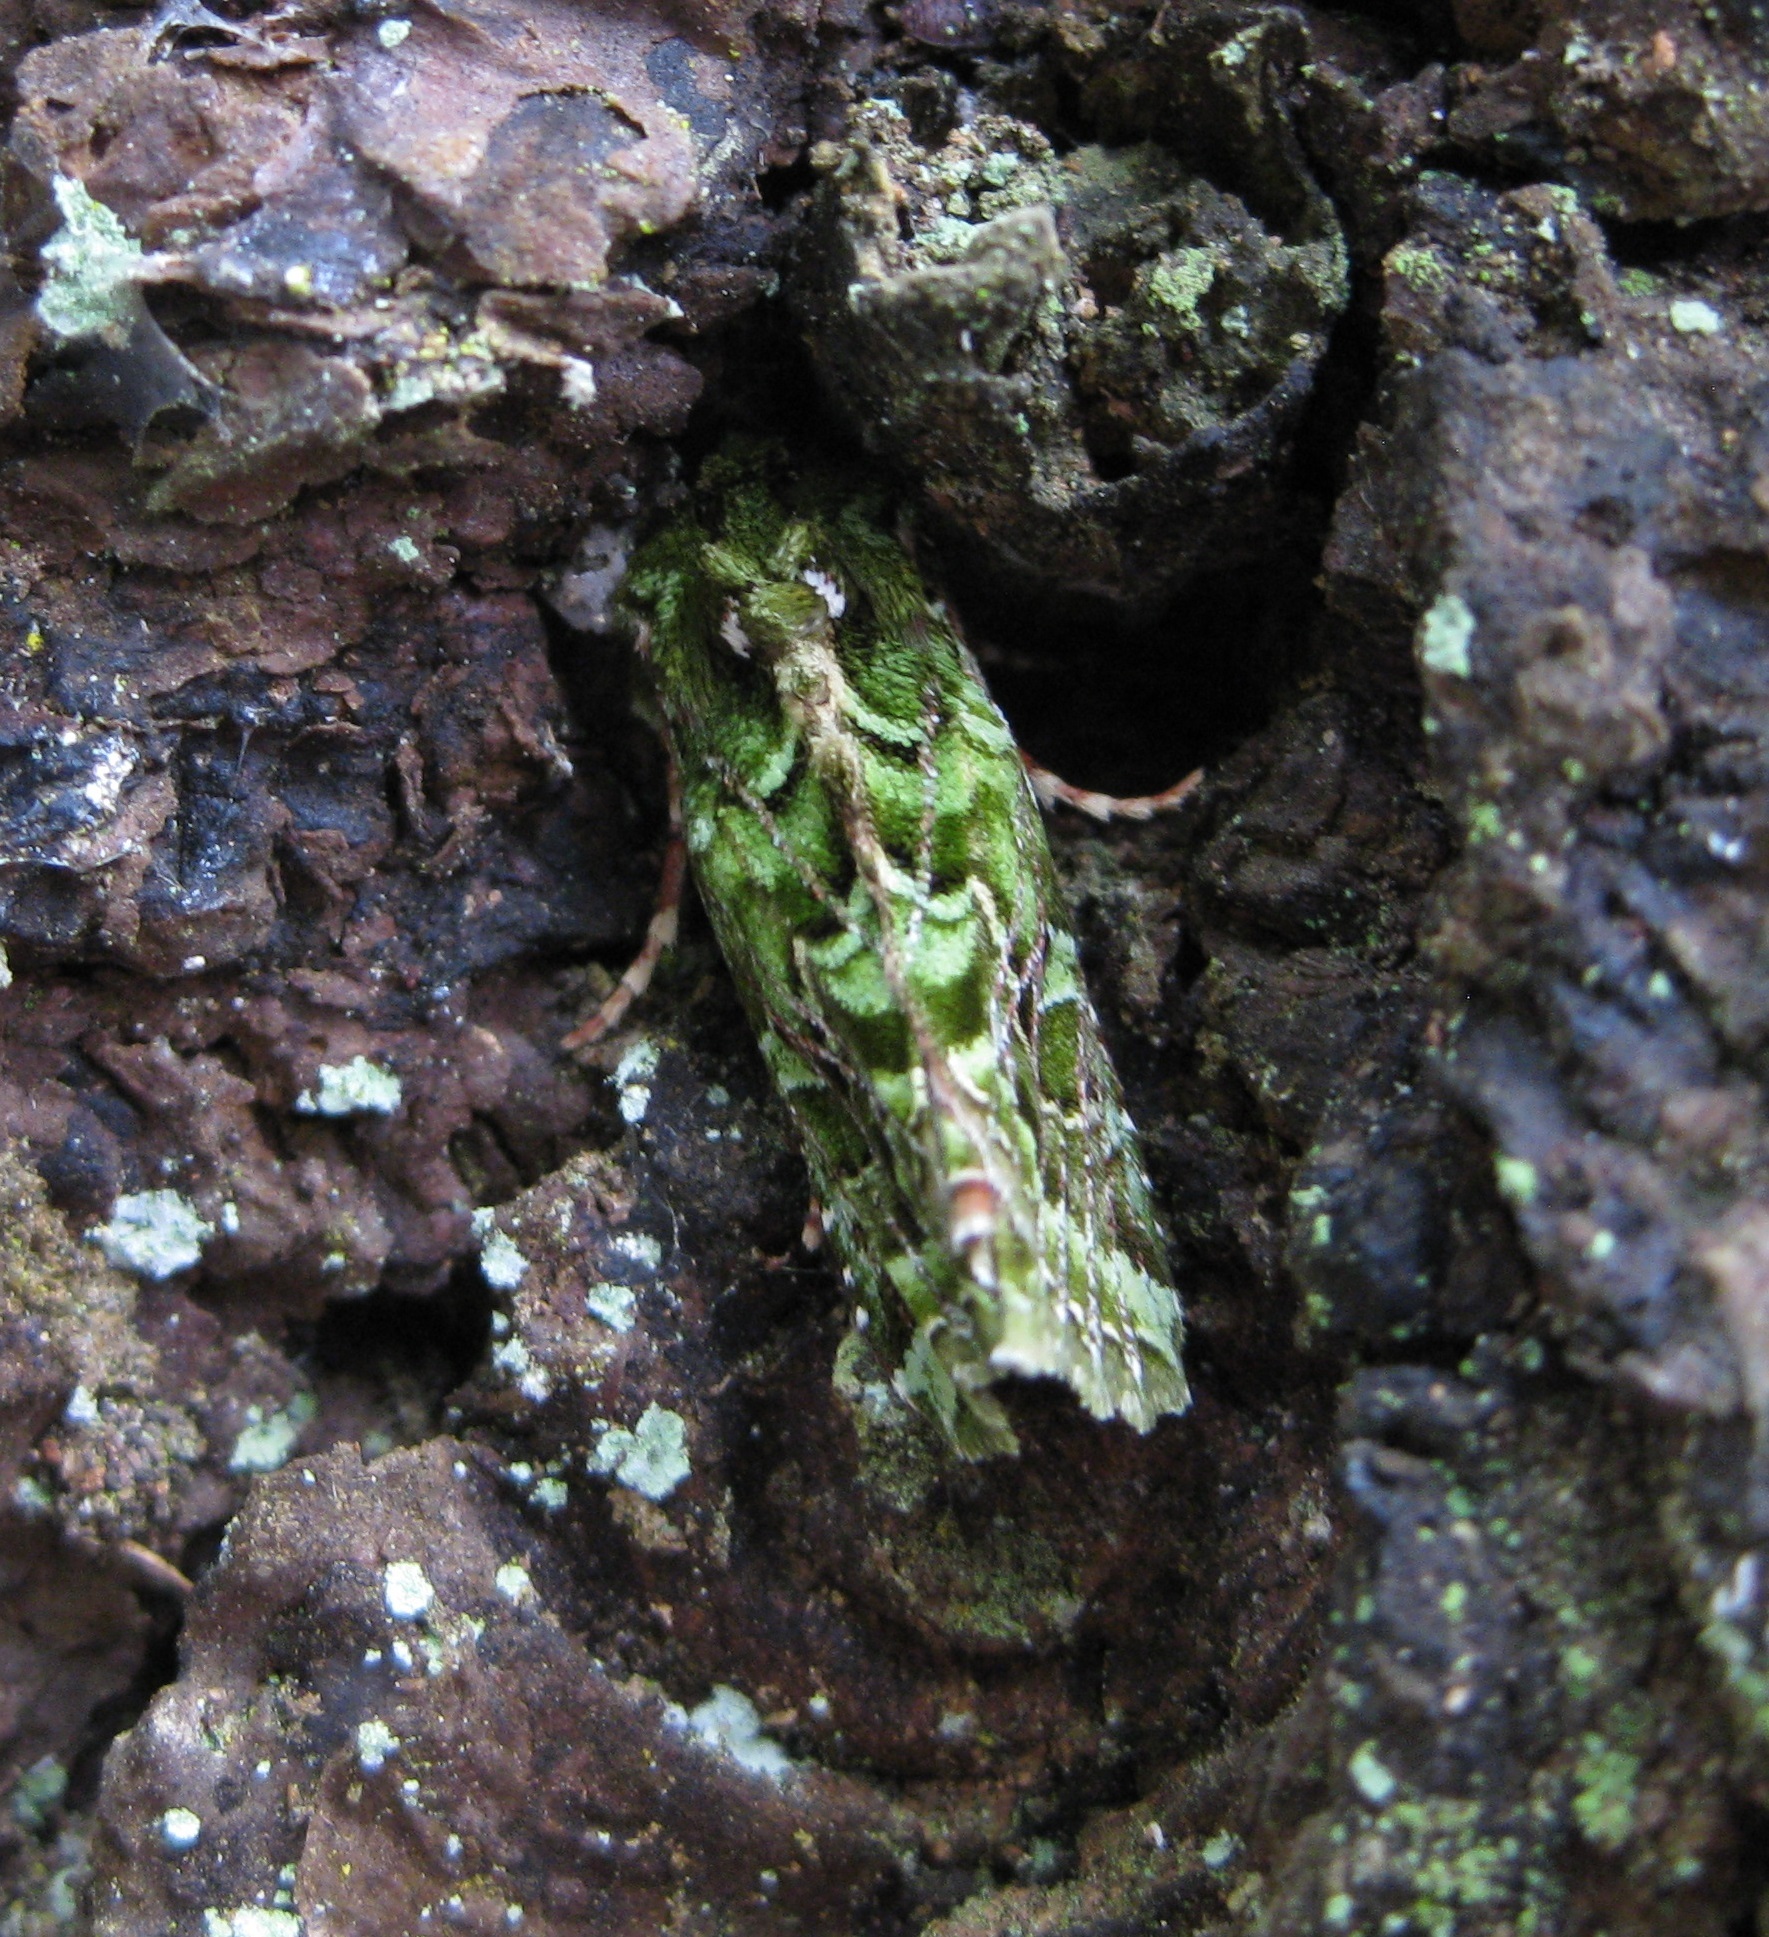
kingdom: Animalia
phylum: Arthropoda
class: Insecta
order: Lepidoptera
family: Noctuidae
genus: Feredayia
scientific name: Feredayia grammosa
